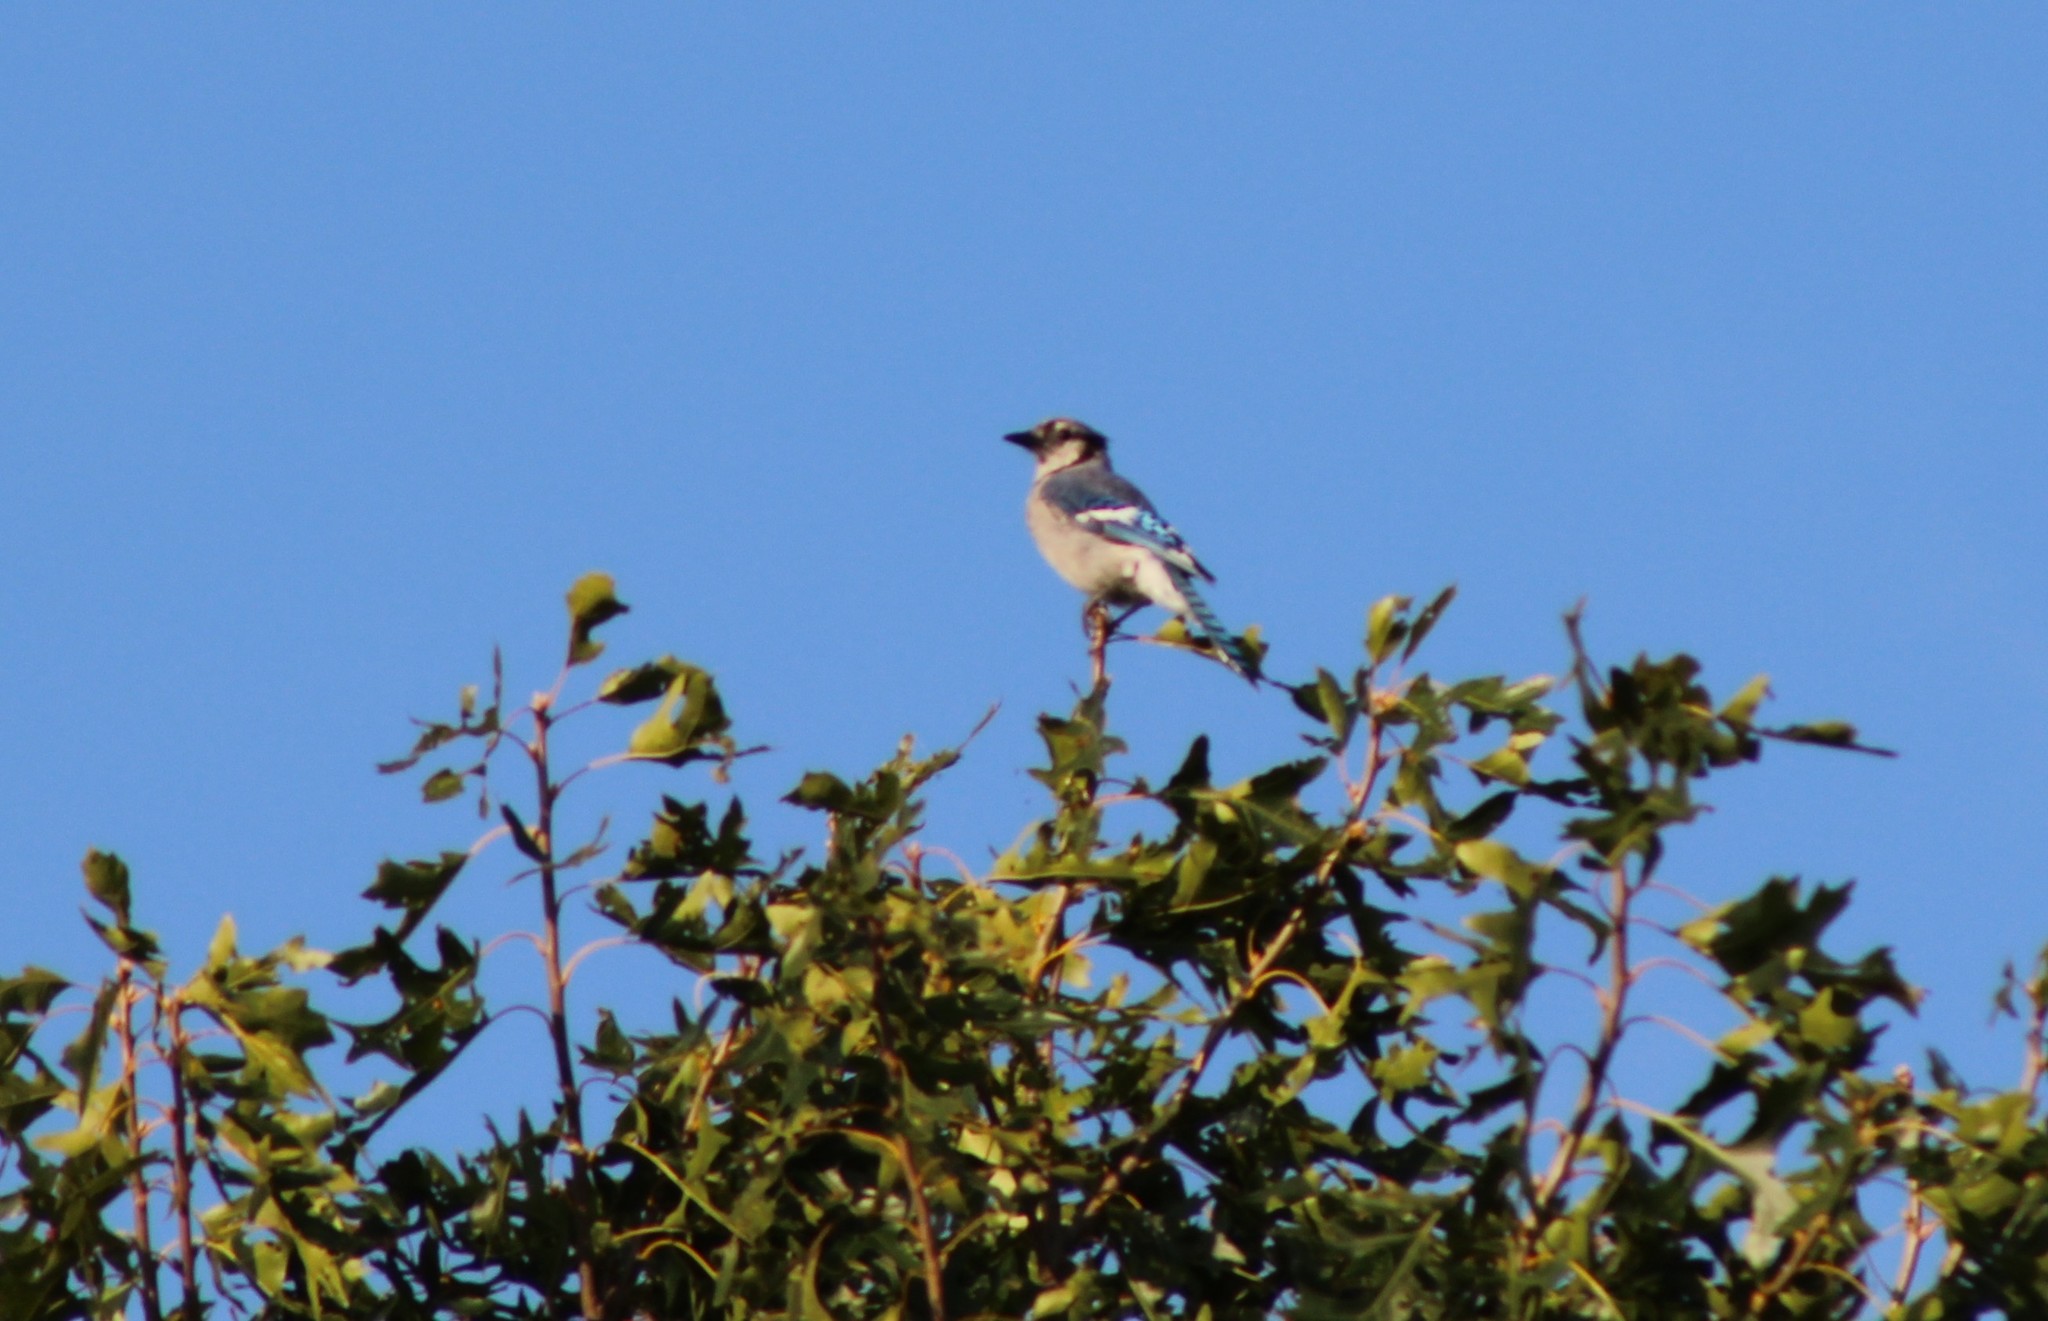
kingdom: Animalia
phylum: Chordata
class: Aves
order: Passeriformes
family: Corvidae
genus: Cyanocitta
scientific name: Cyanocitta cristata
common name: Blue jay
